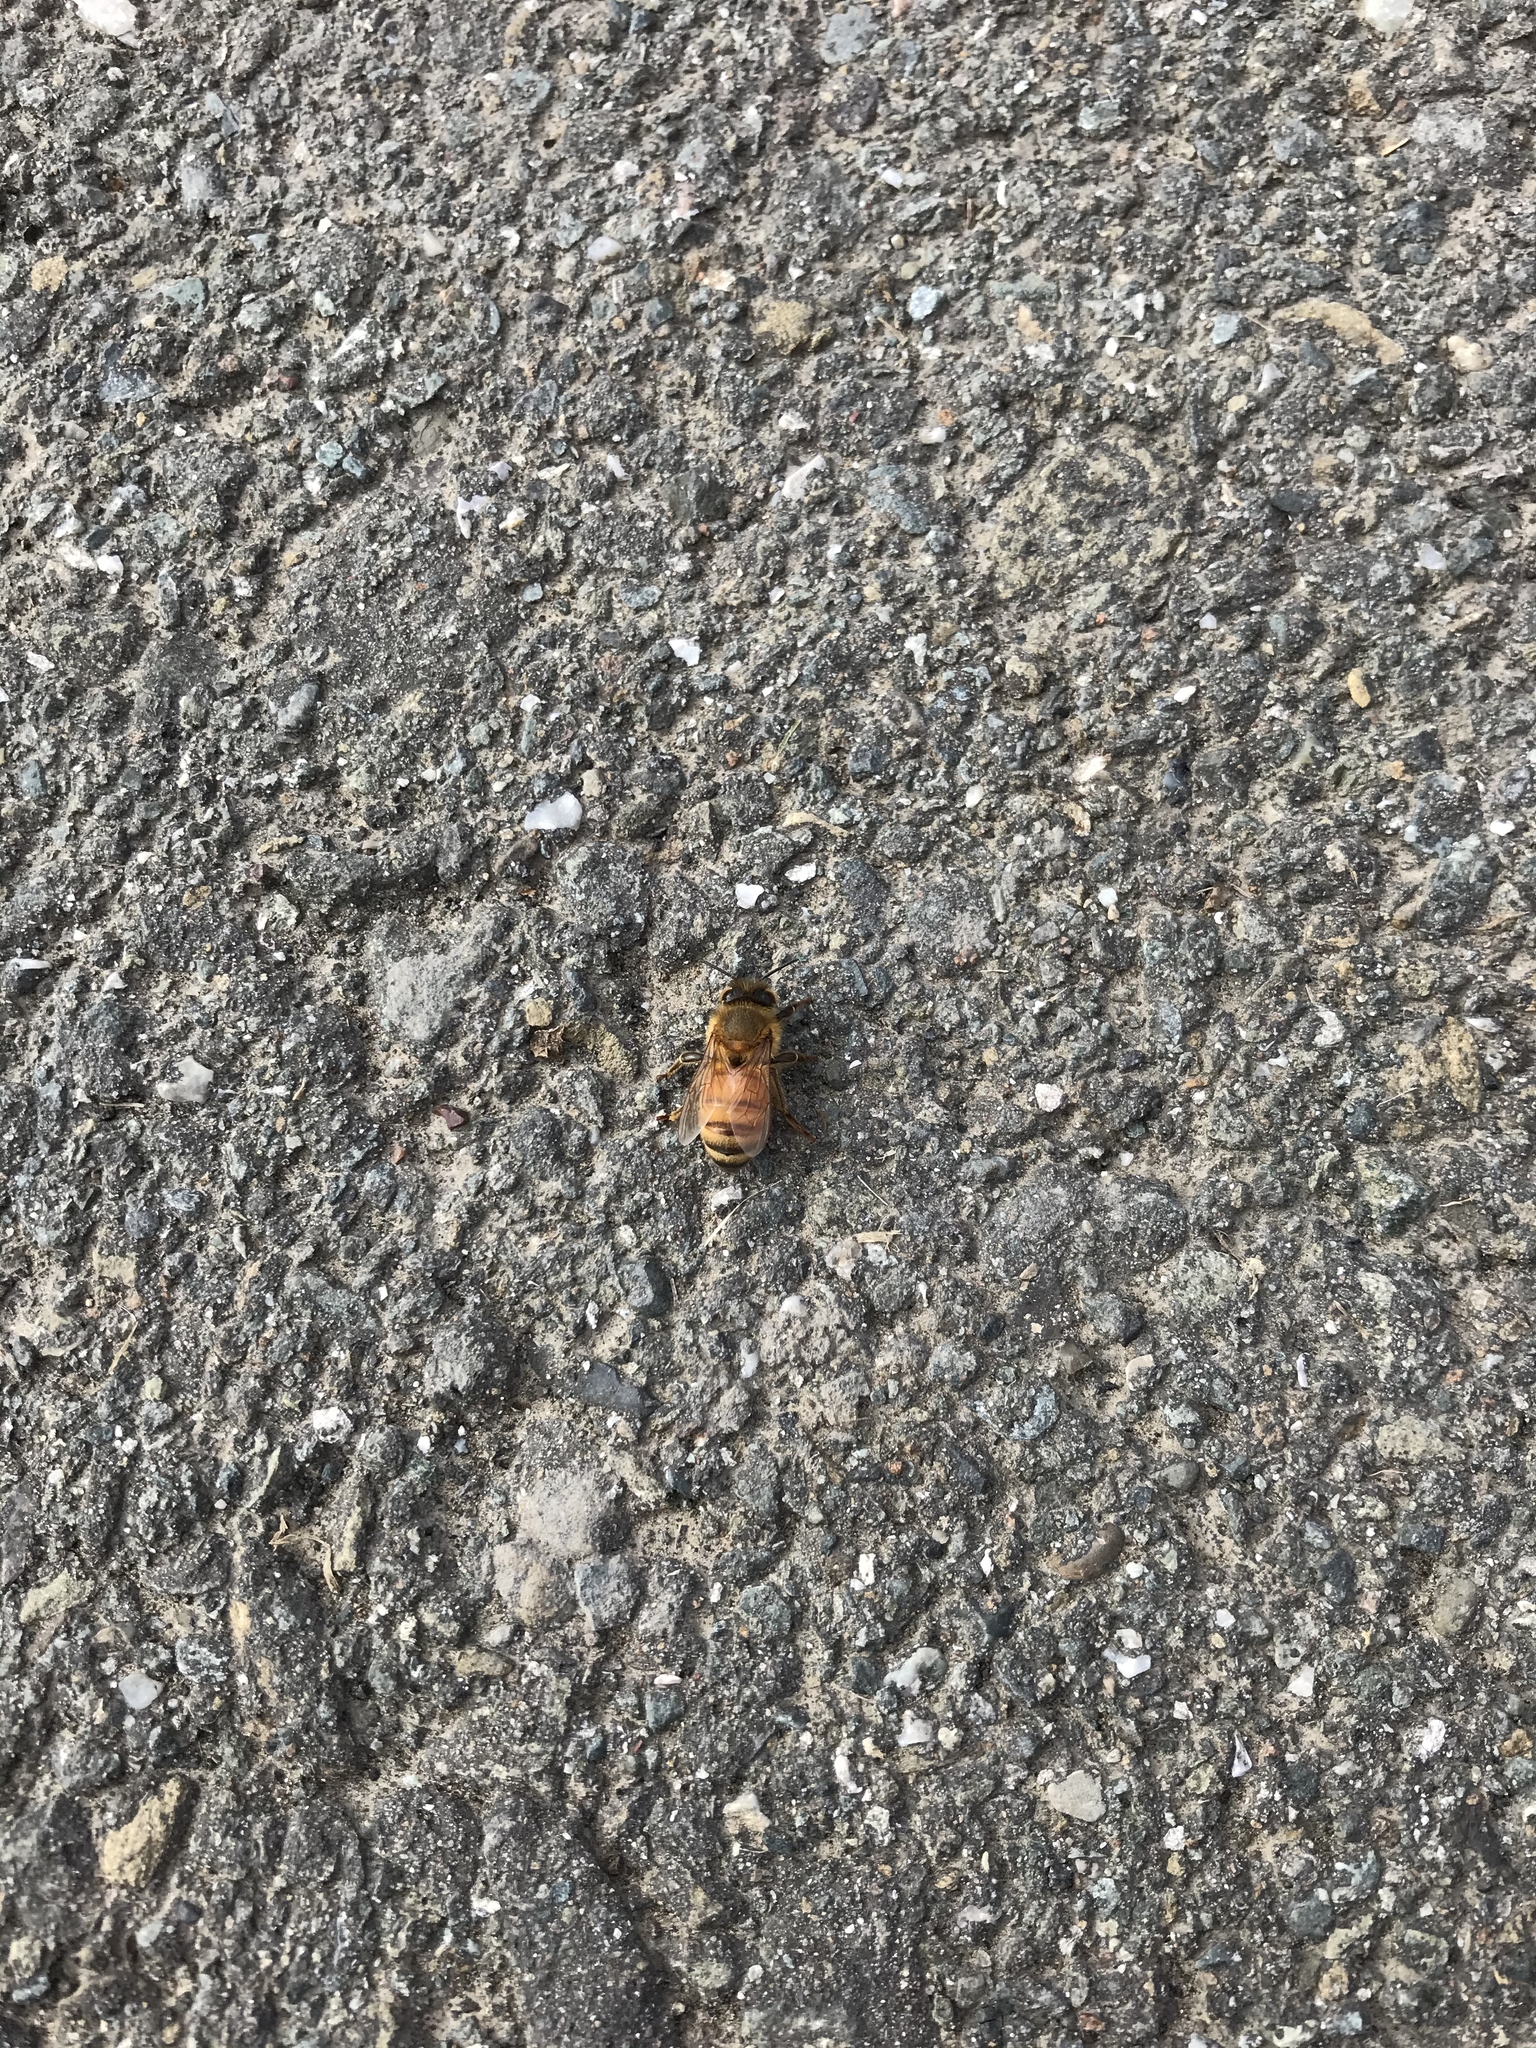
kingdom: Animalia
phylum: Arthropoda
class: Insecta
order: Hymenoptera
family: Apidae
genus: Apis
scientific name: Apis mellifera
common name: Honey bee
